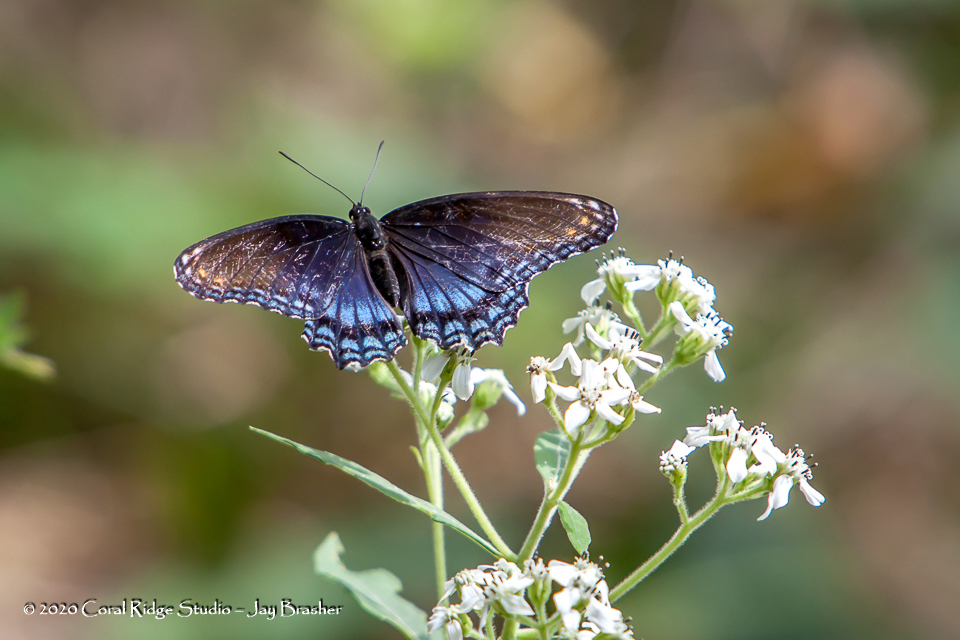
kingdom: Animalia
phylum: Arthropoda
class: Insecta
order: Lepidoptera
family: Nymphalidae
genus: Limenitis
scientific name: Limenitis astyanax
